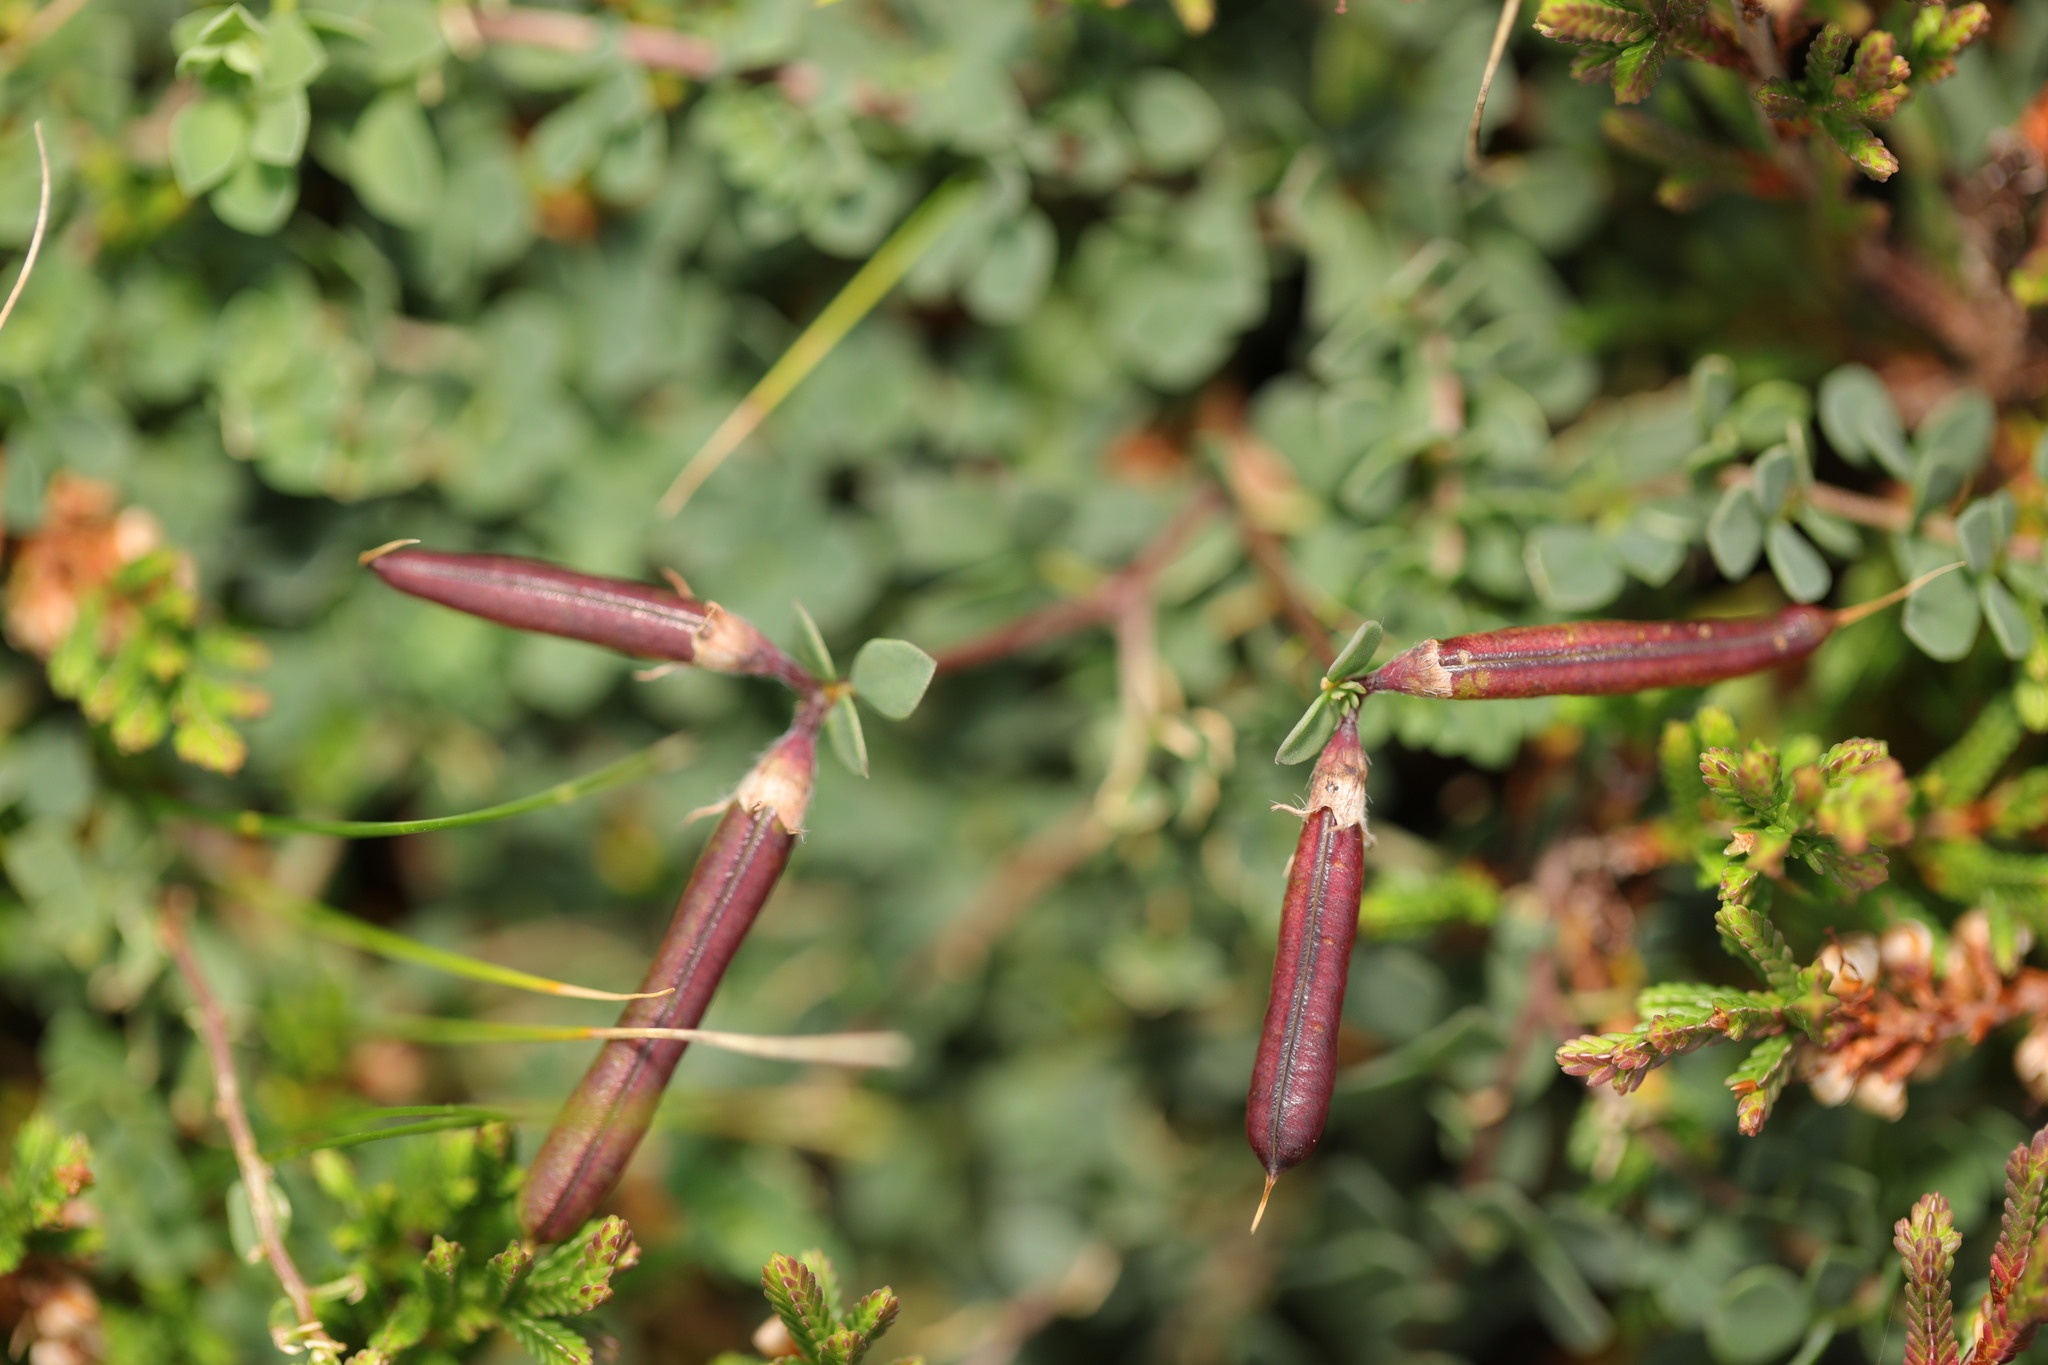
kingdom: Plantae
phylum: Tracheophyta
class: Magnoliopsida
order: Fabales
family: Fabaceae
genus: Lotus
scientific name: Lotus corniculatus
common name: Common bird's-foot-trefoil
